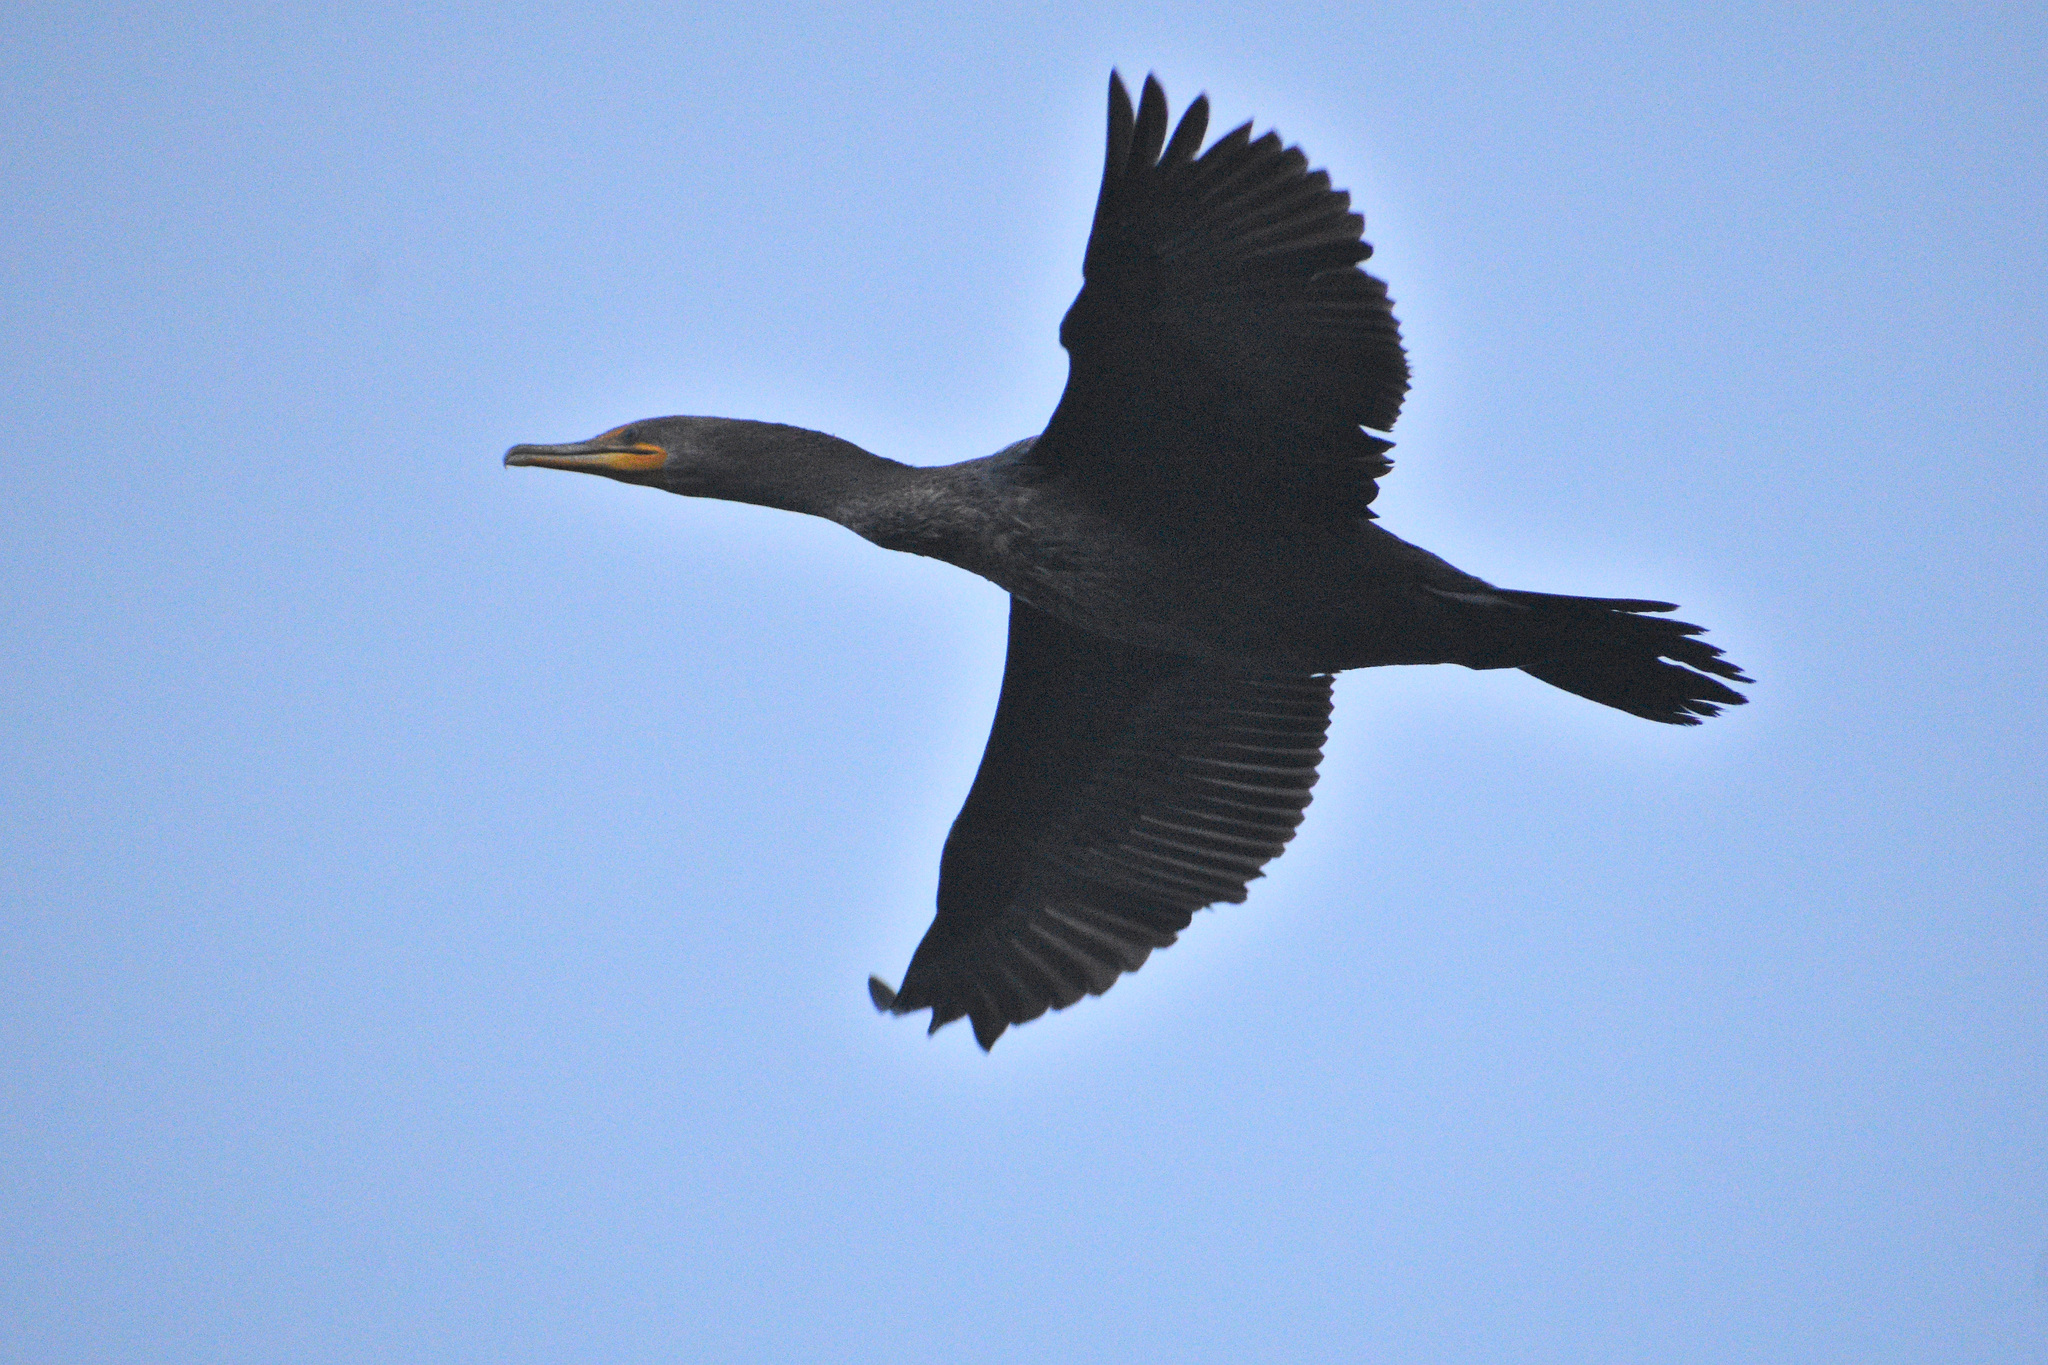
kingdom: Animalia
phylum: Chordata
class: Aves
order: Suliformes
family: Phalacrocoracidae
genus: Phalacrocorax
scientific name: Phalacrocorax auritus
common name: Double-crested cormorant
